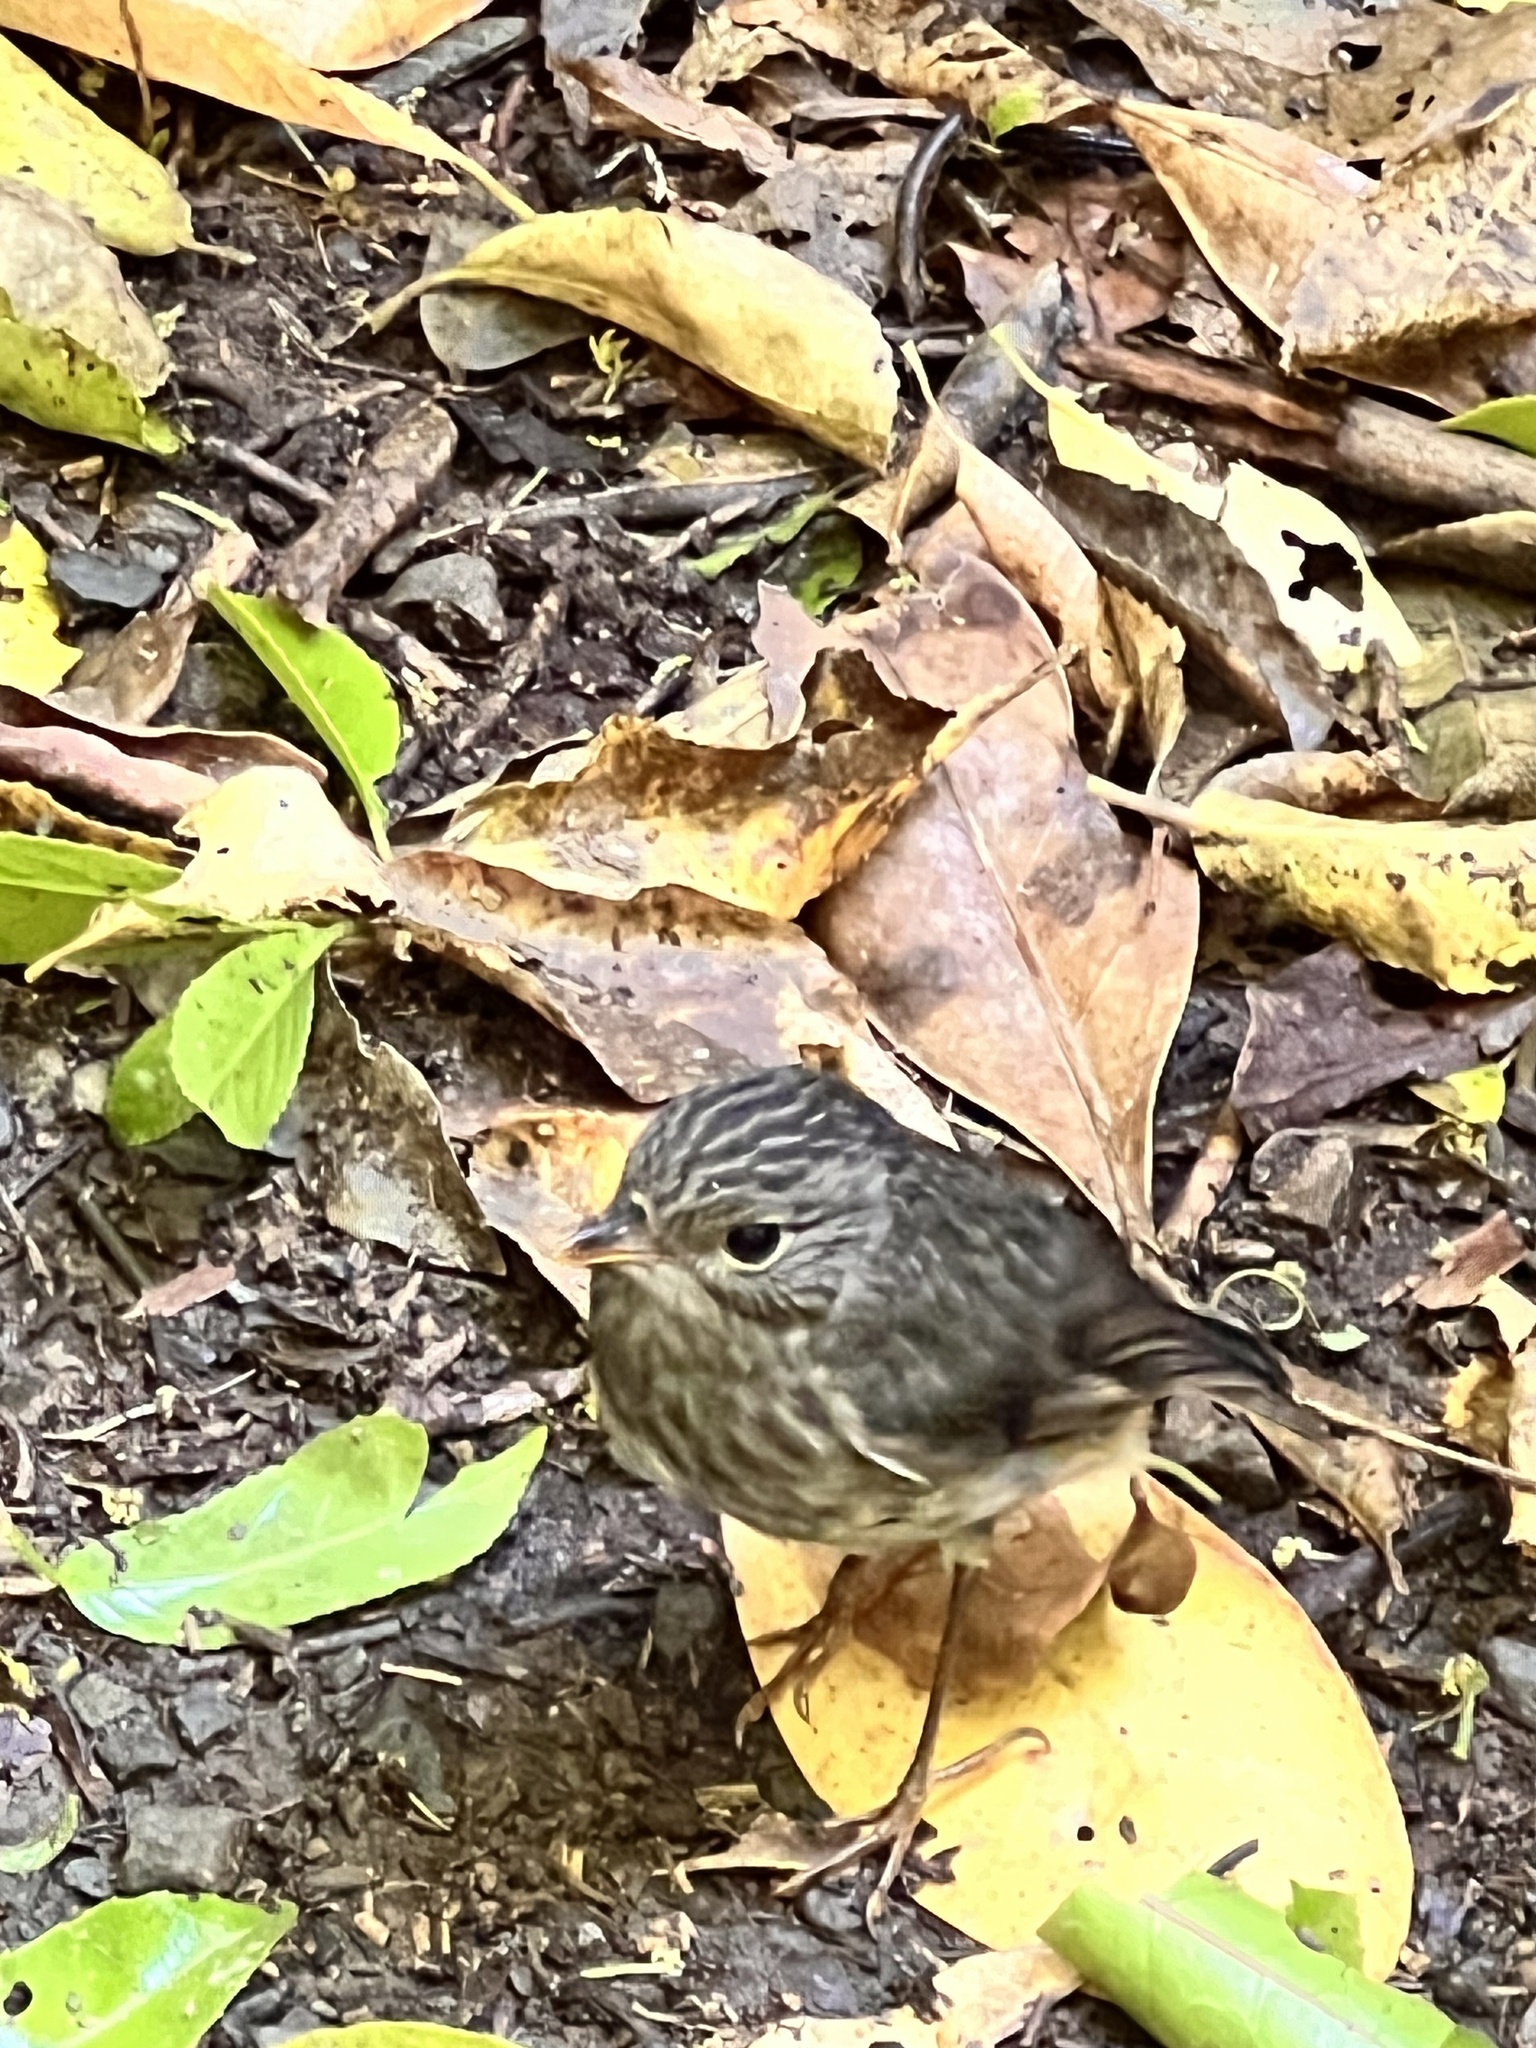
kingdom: Animalia
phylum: Chordata
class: Aves
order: Passeriformes
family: Petroicidae
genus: Petroica
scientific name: Petroica australis
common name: New zealand robin
